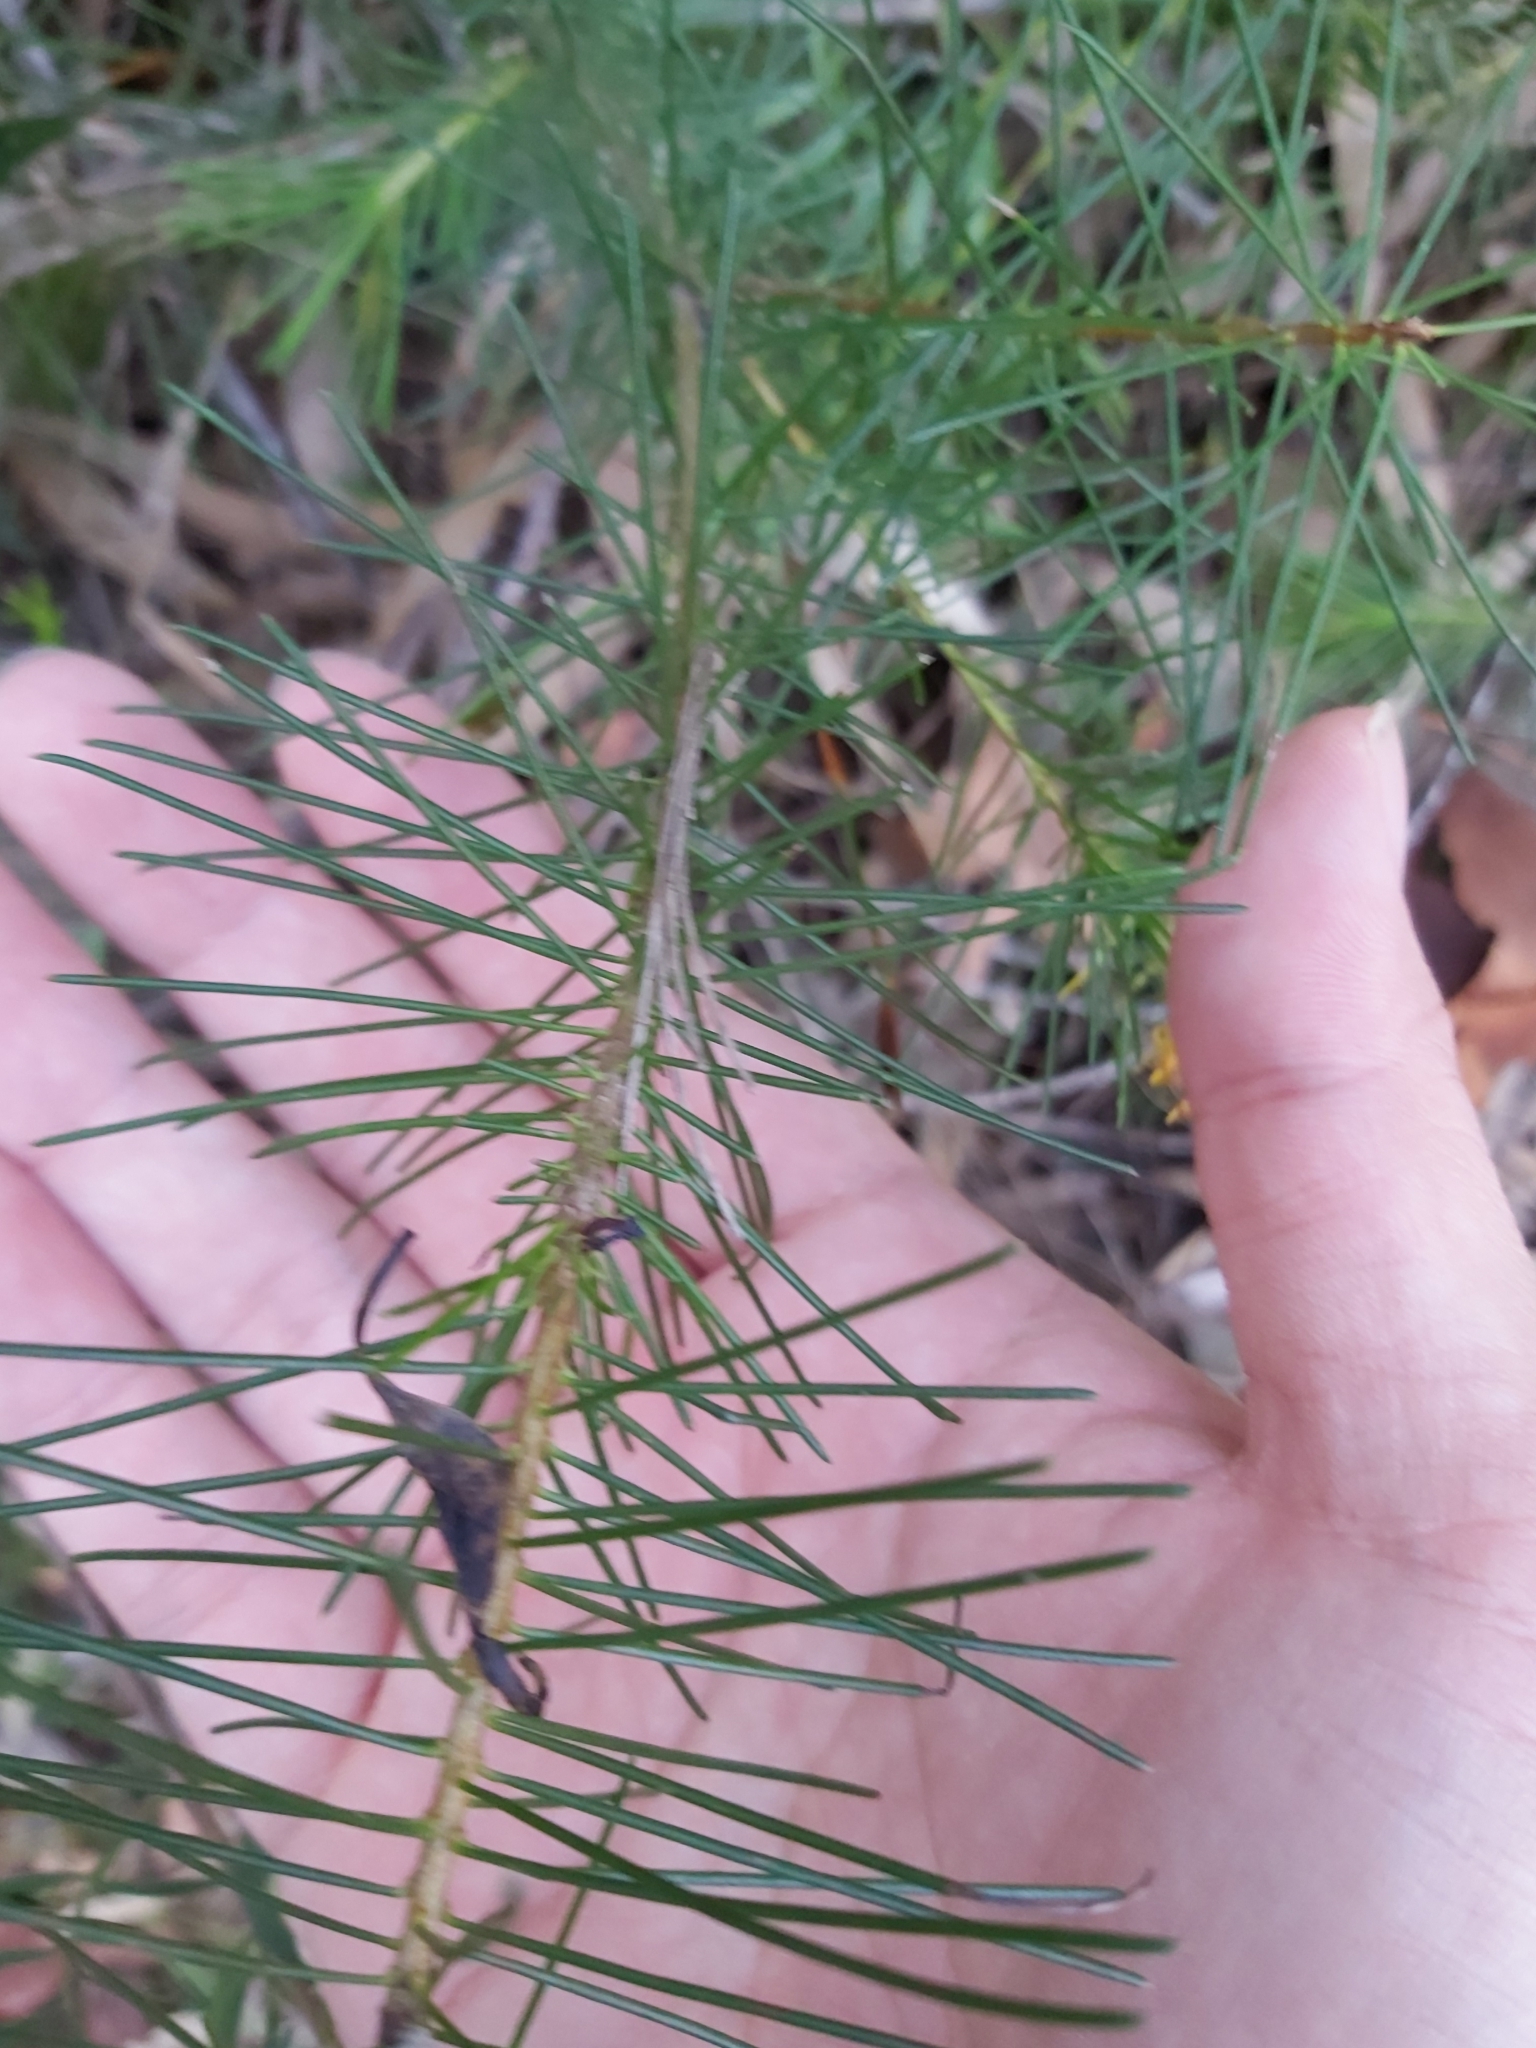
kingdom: Plantae
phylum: Tracheophyta
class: Magnoliopsida
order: Proteales
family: Proteaceae
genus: Persoonia
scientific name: Persoonia pinifolia
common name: Pine-leaf geebung
